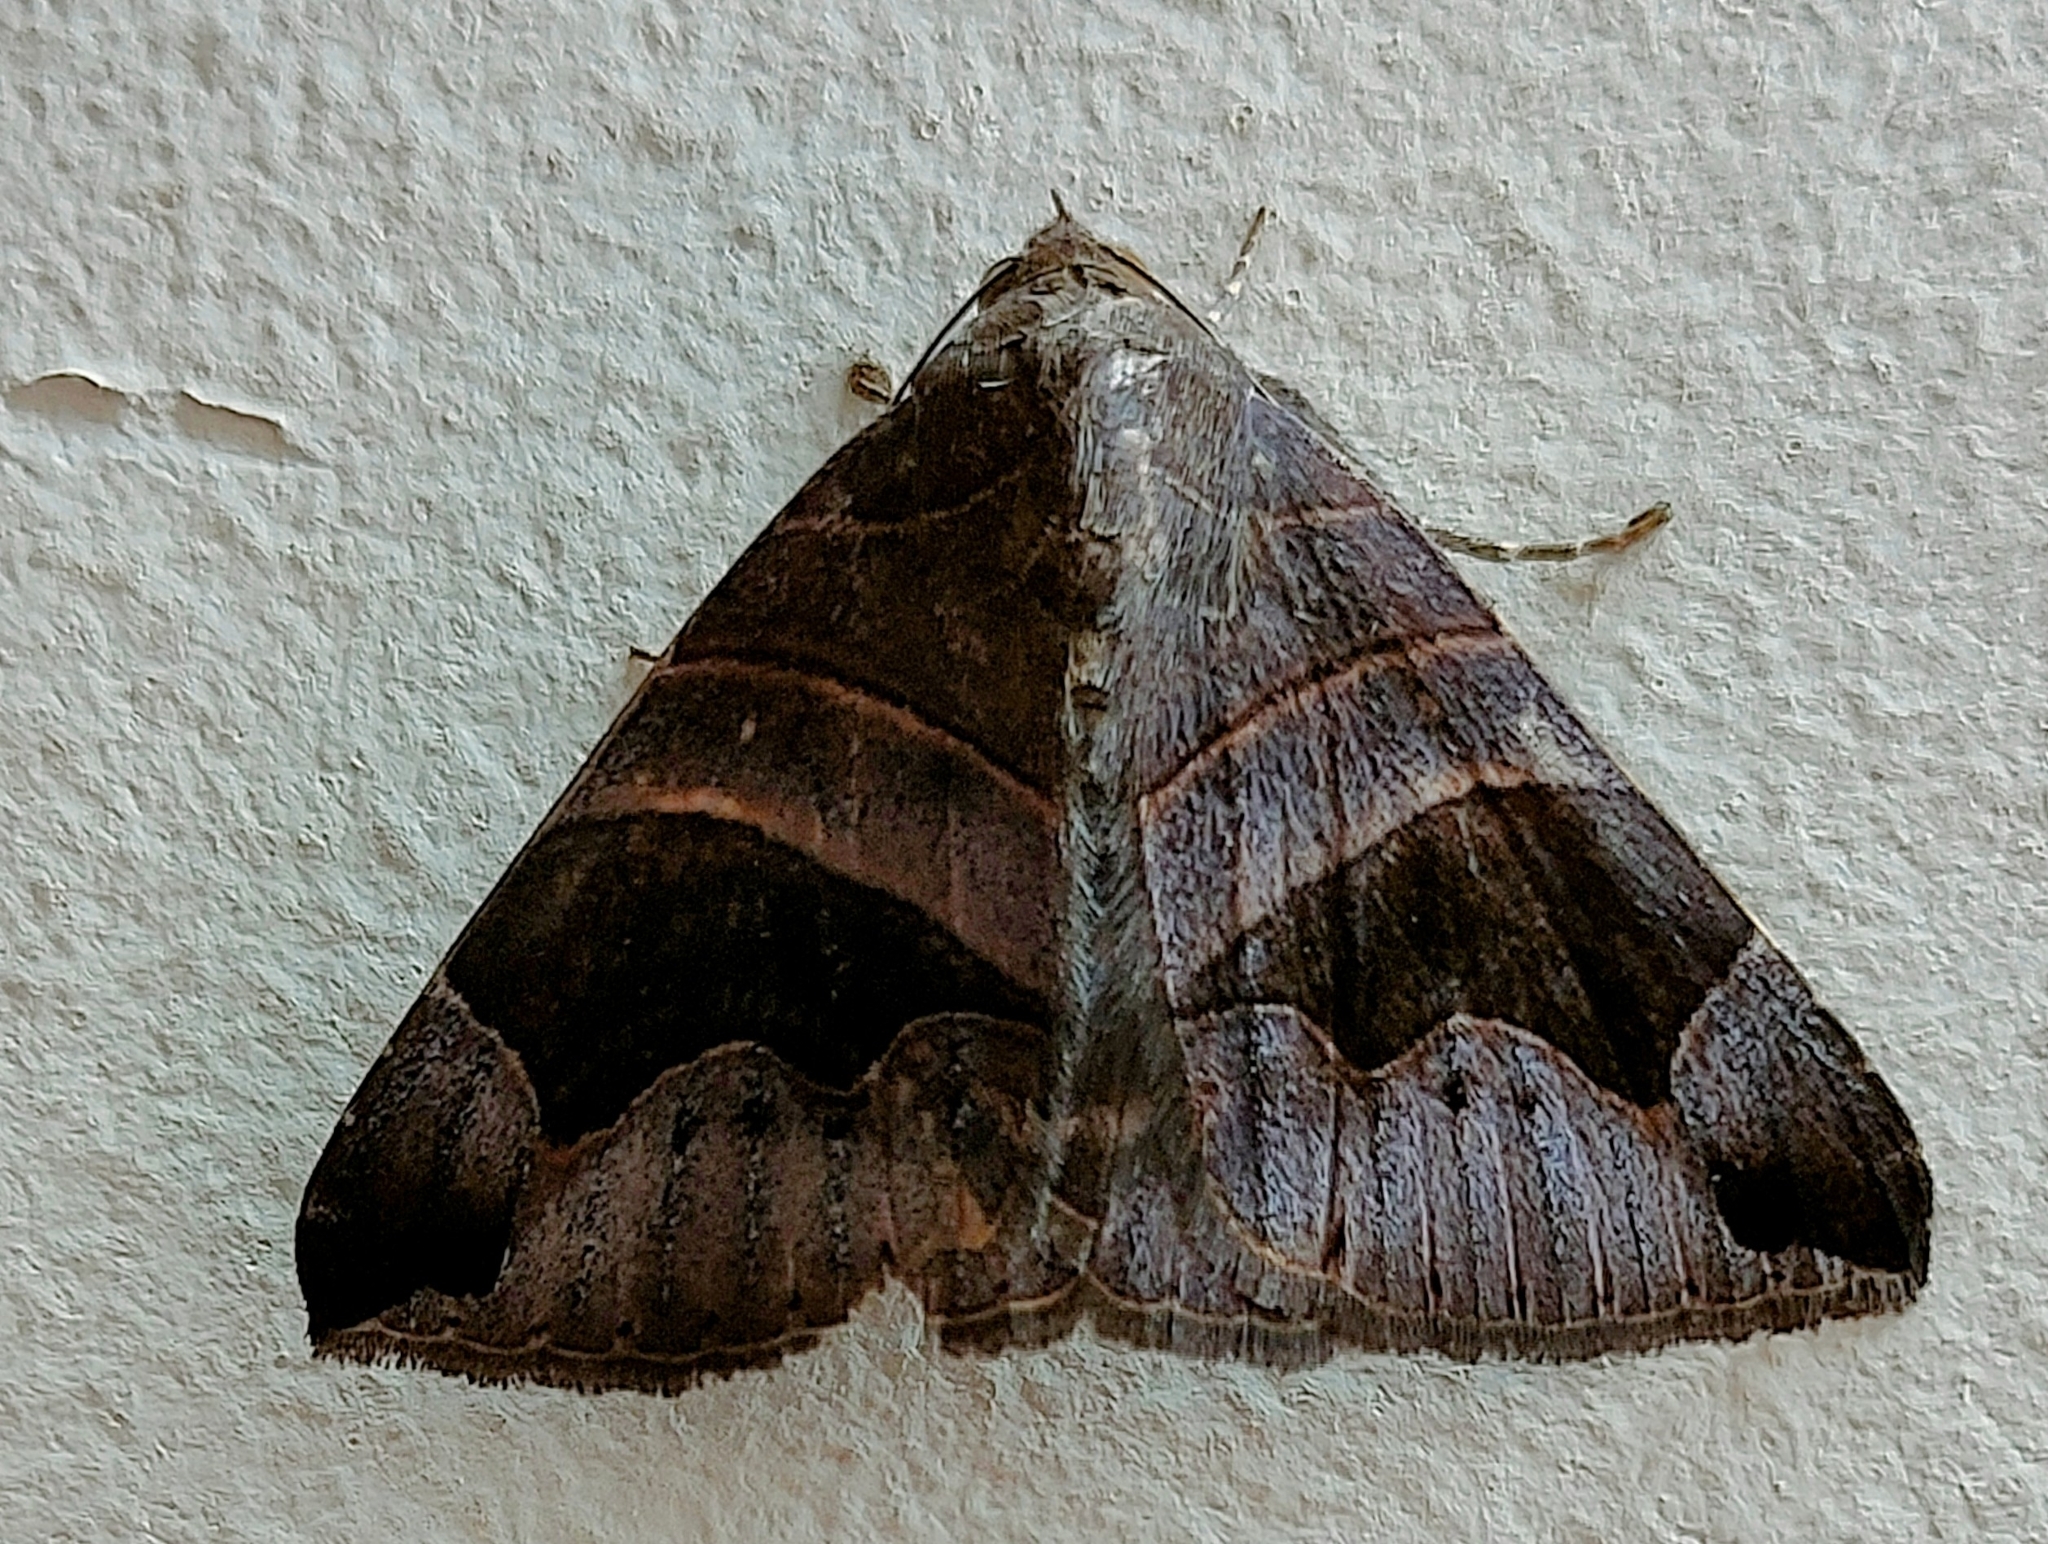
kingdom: Animalia
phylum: Arthropoda
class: Insecta
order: Lepidoptera
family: Erebidae
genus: Bastilla
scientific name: Bastilla joviana
